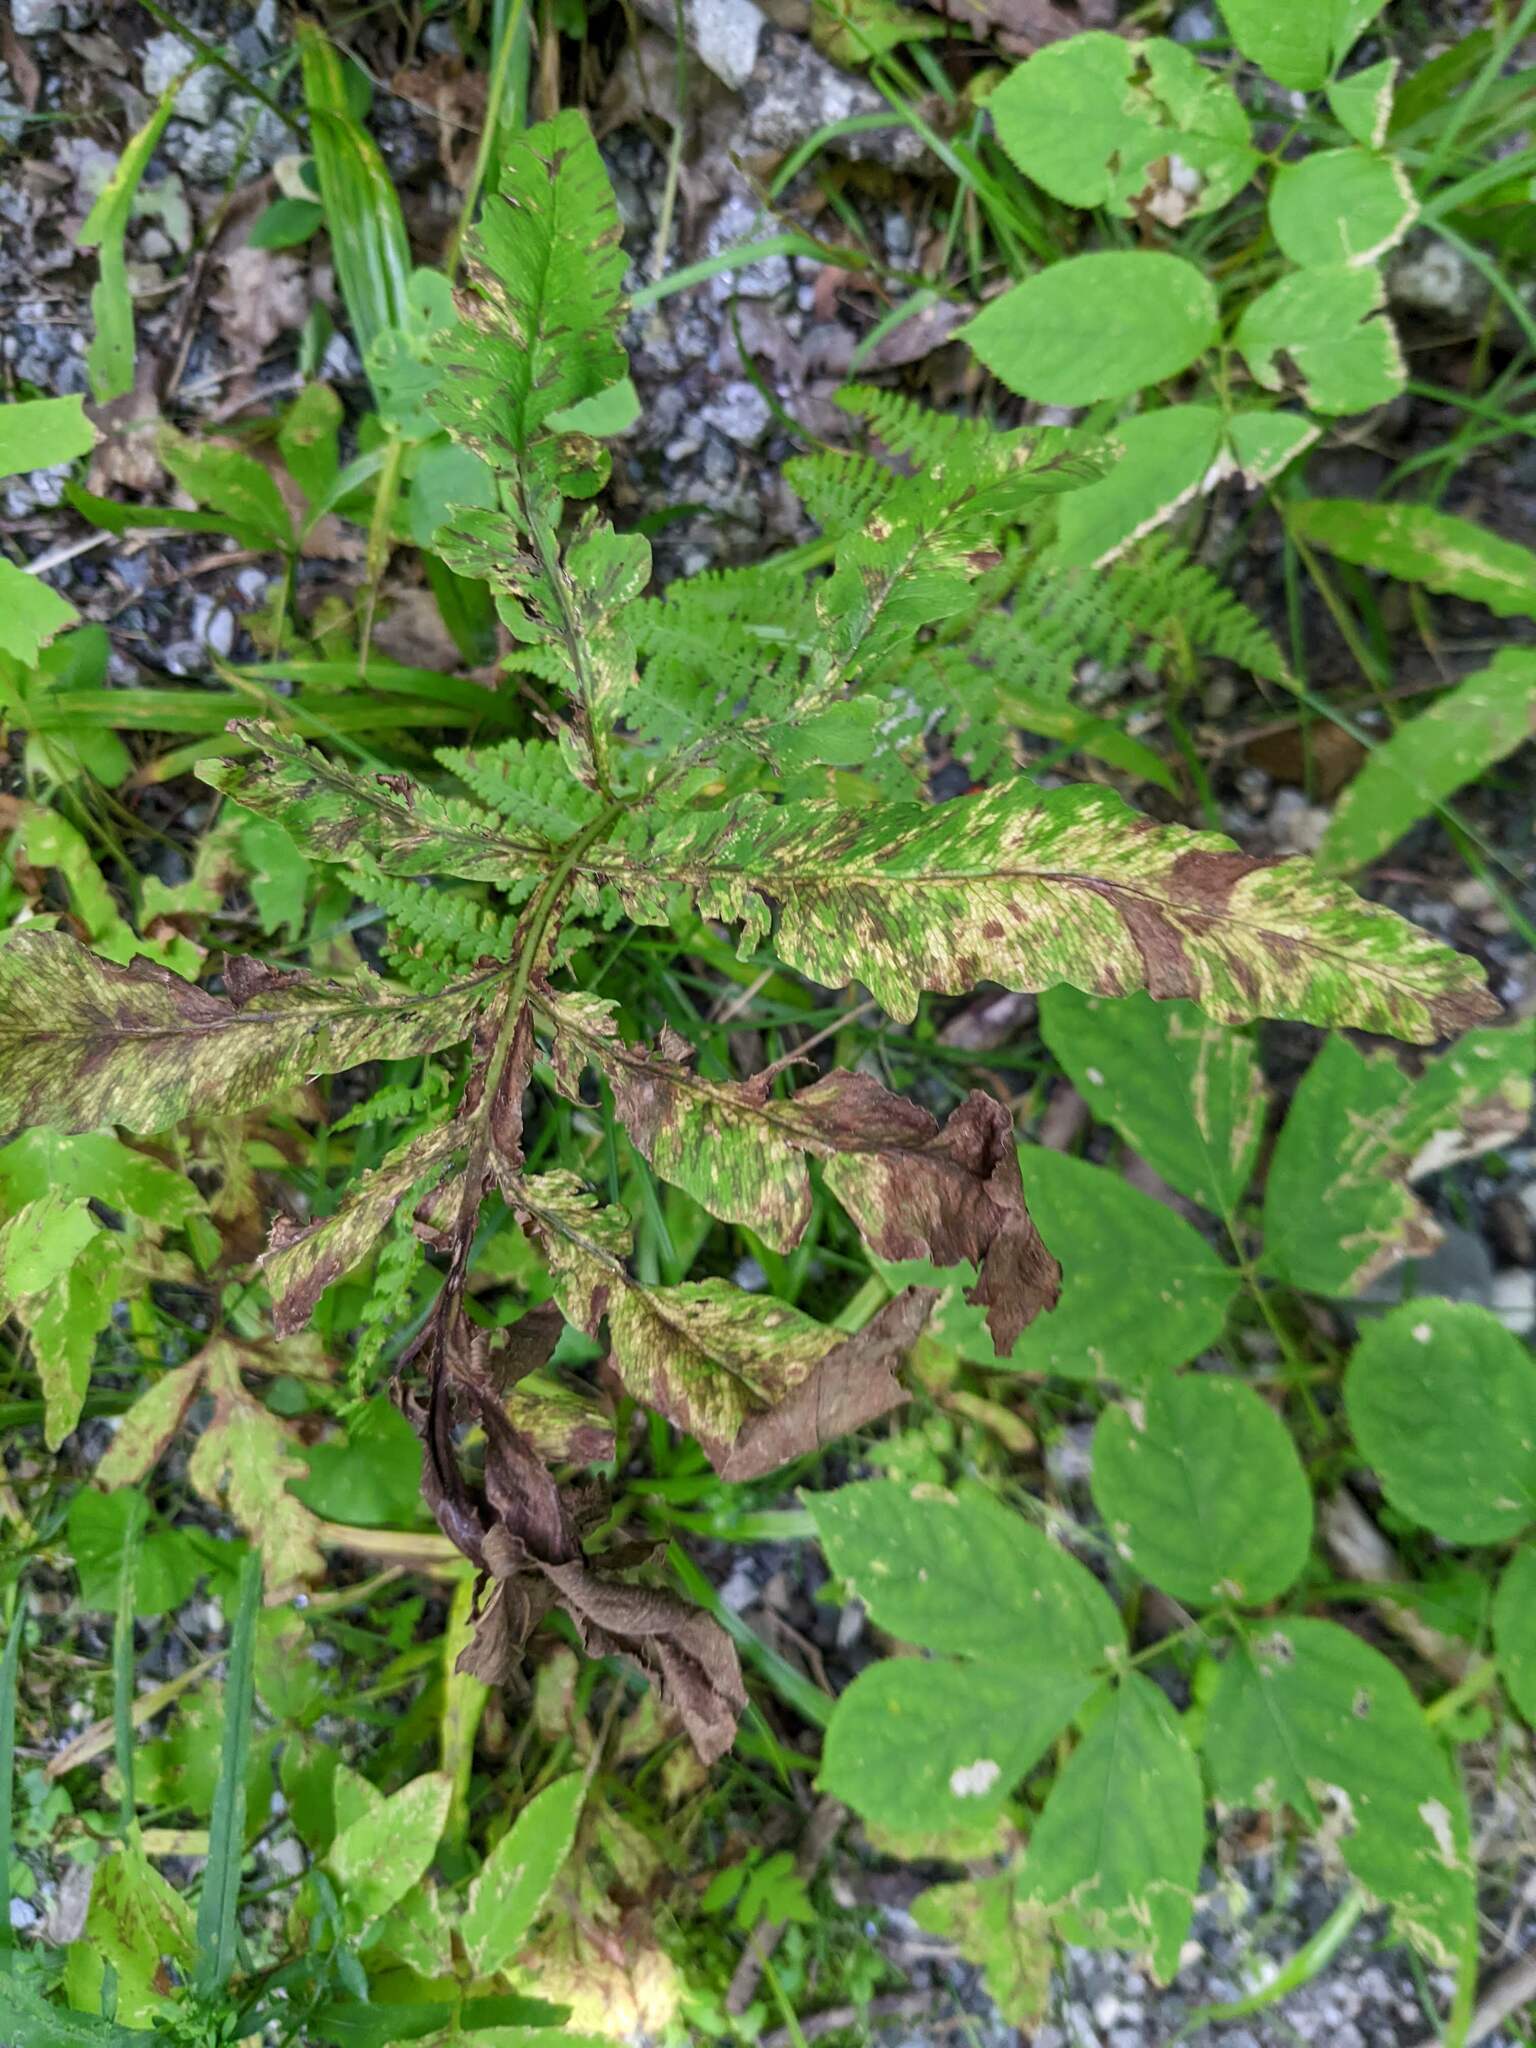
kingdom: Plantae
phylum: Tracheophyta
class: Polypodiopsida
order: Polypodiales
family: Onocleaceae
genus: Onoclea
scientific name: Onoclea sensibilis
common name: Sensitive fern
